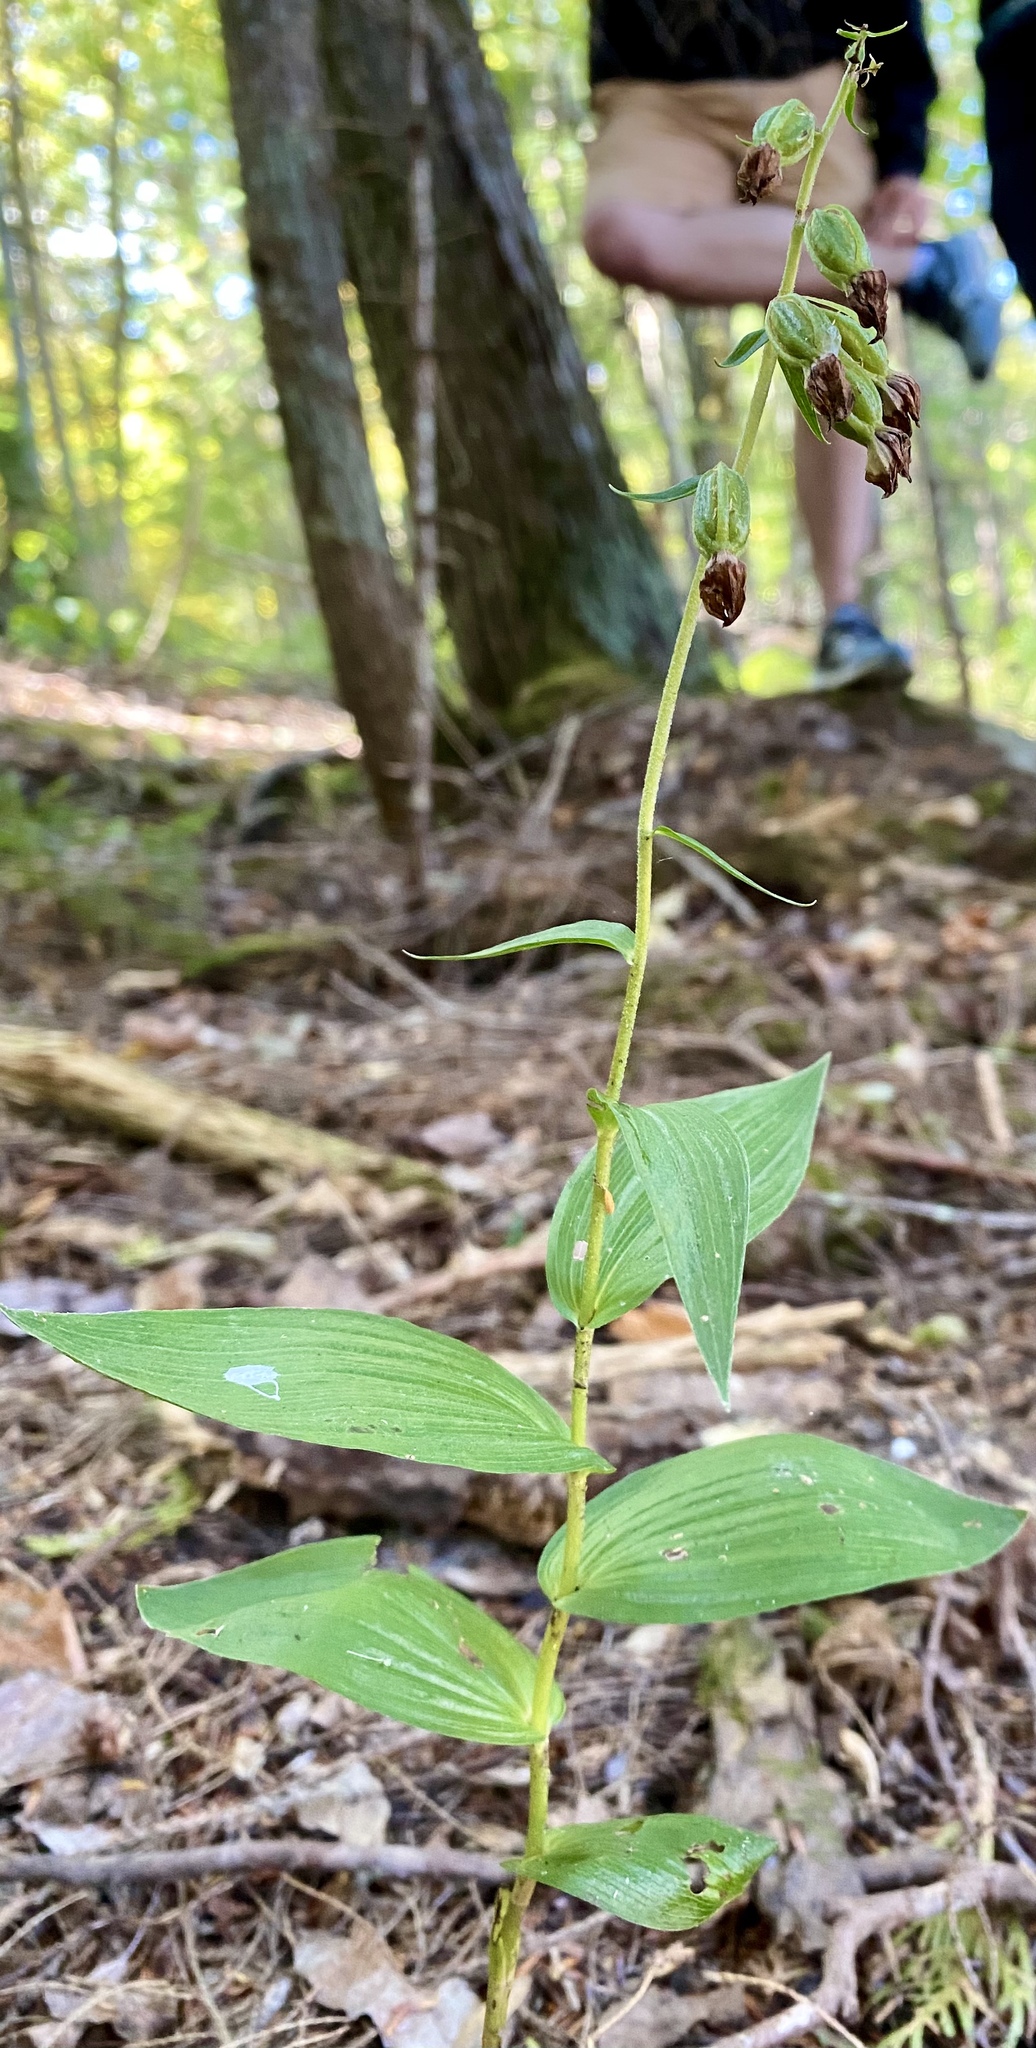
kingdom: Plantae
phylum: Tracheophyta
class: Liliopsida
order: Asparagales
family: Orchidaceae
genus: Epipactis
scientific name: Epipactis helleborine
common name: Broad-leaved helleborine
